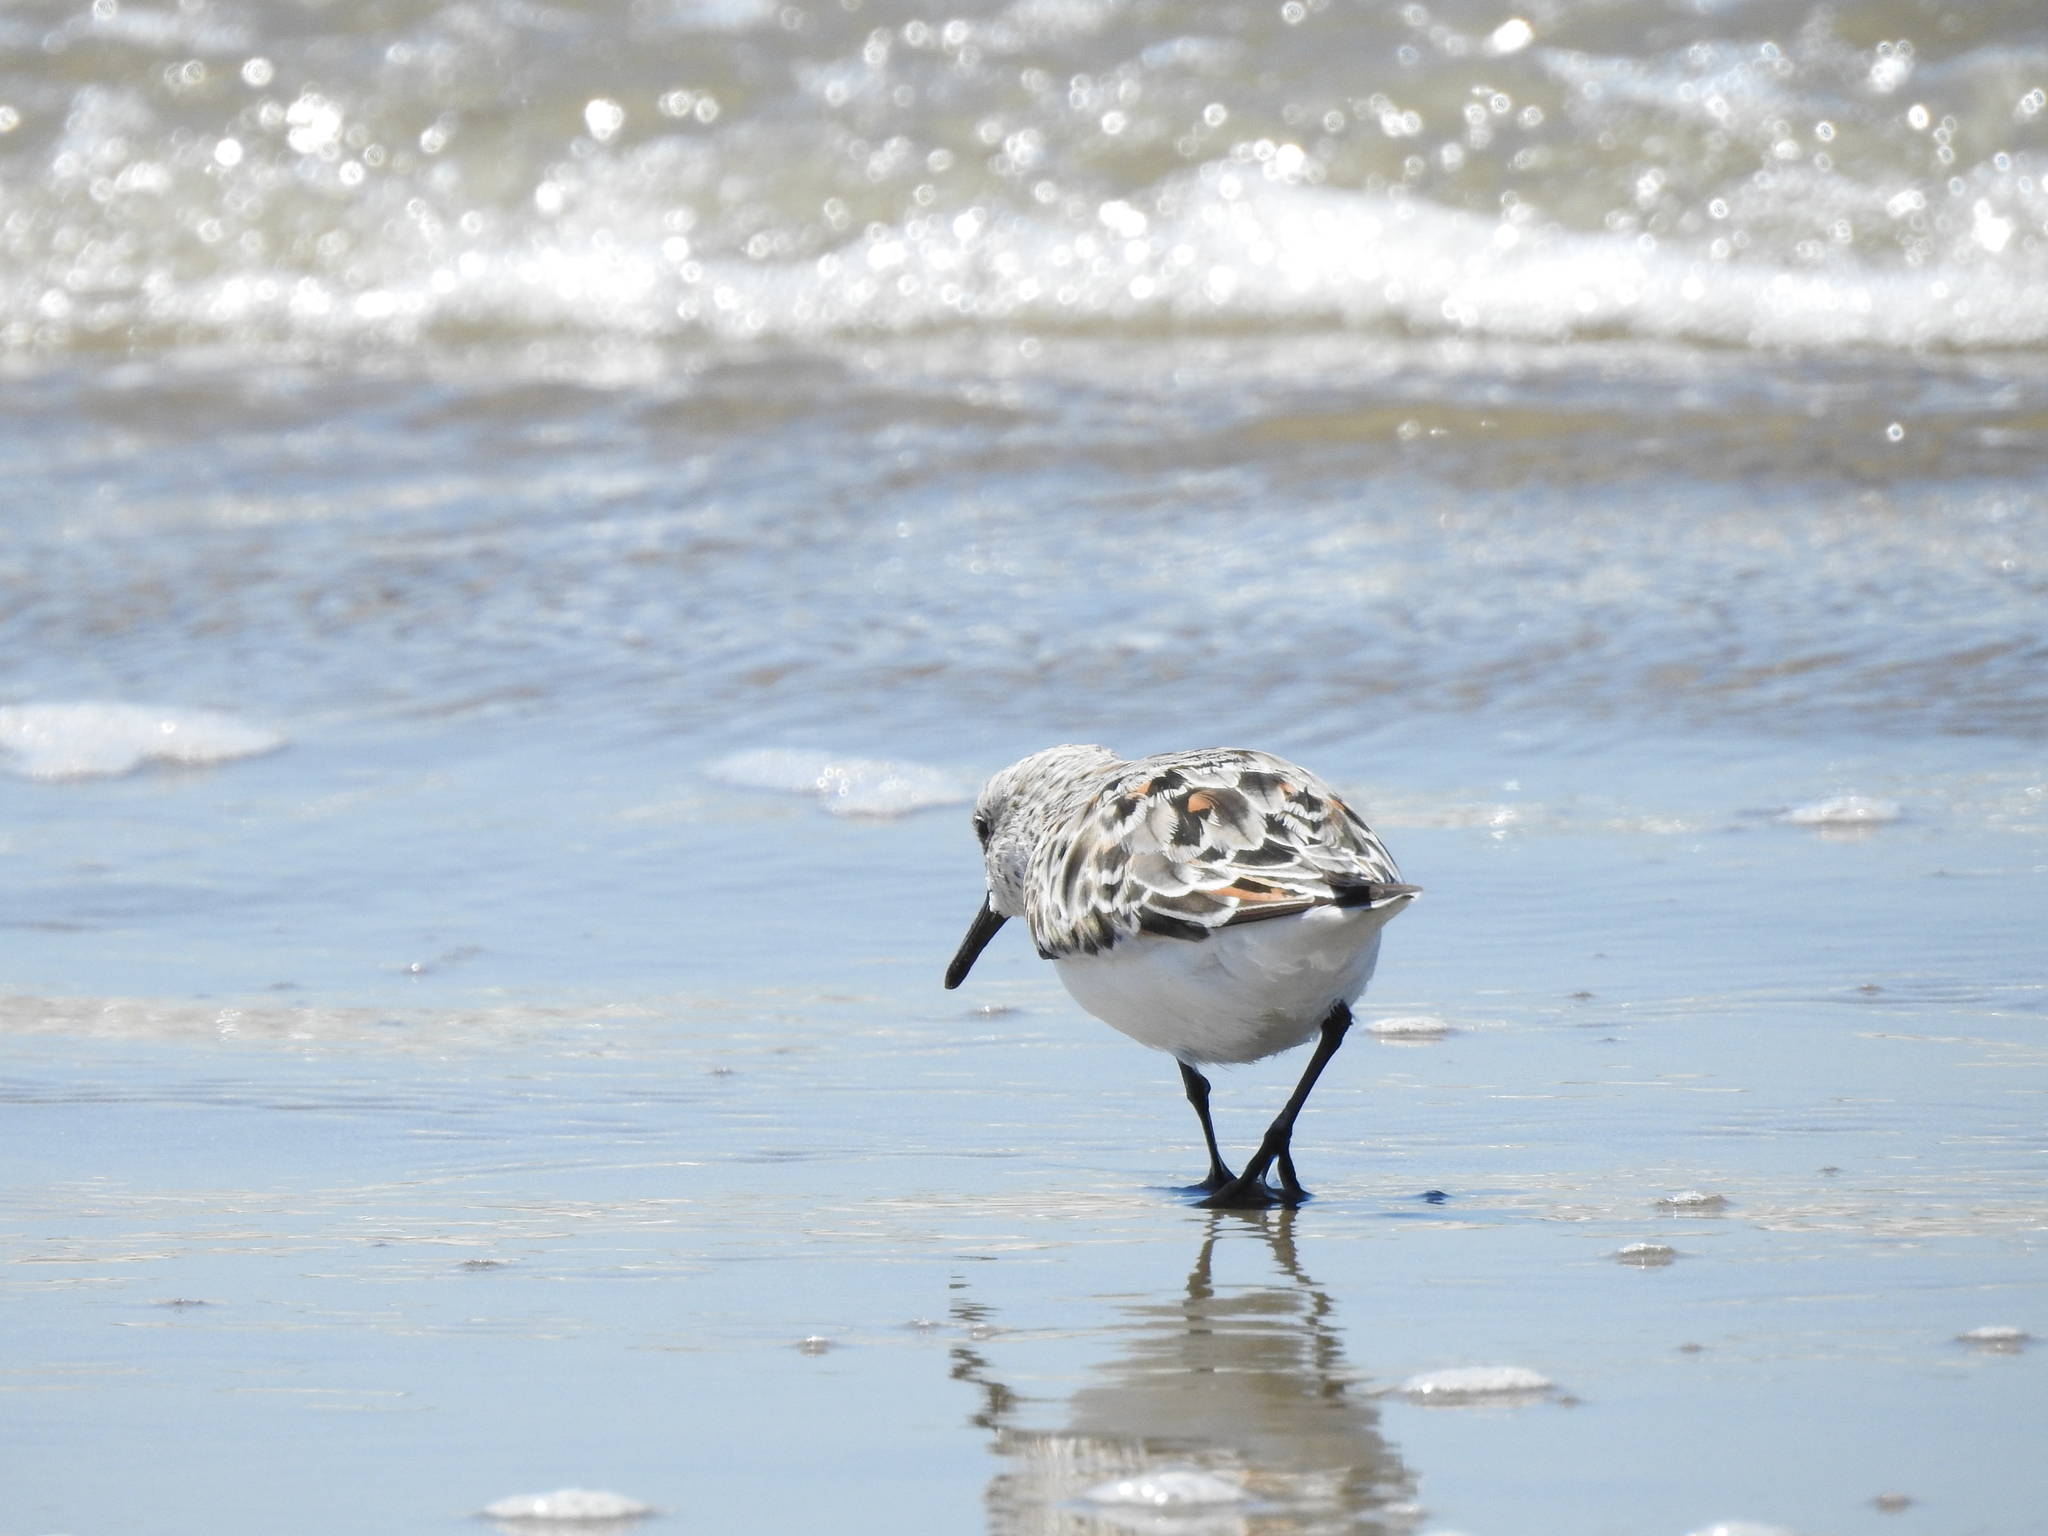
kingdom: Animalia
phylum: Chordata
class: Aves
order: Charadriiformes
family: Scolopacidae
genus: Calidris
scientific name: Calidris alba
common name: Sanderling
